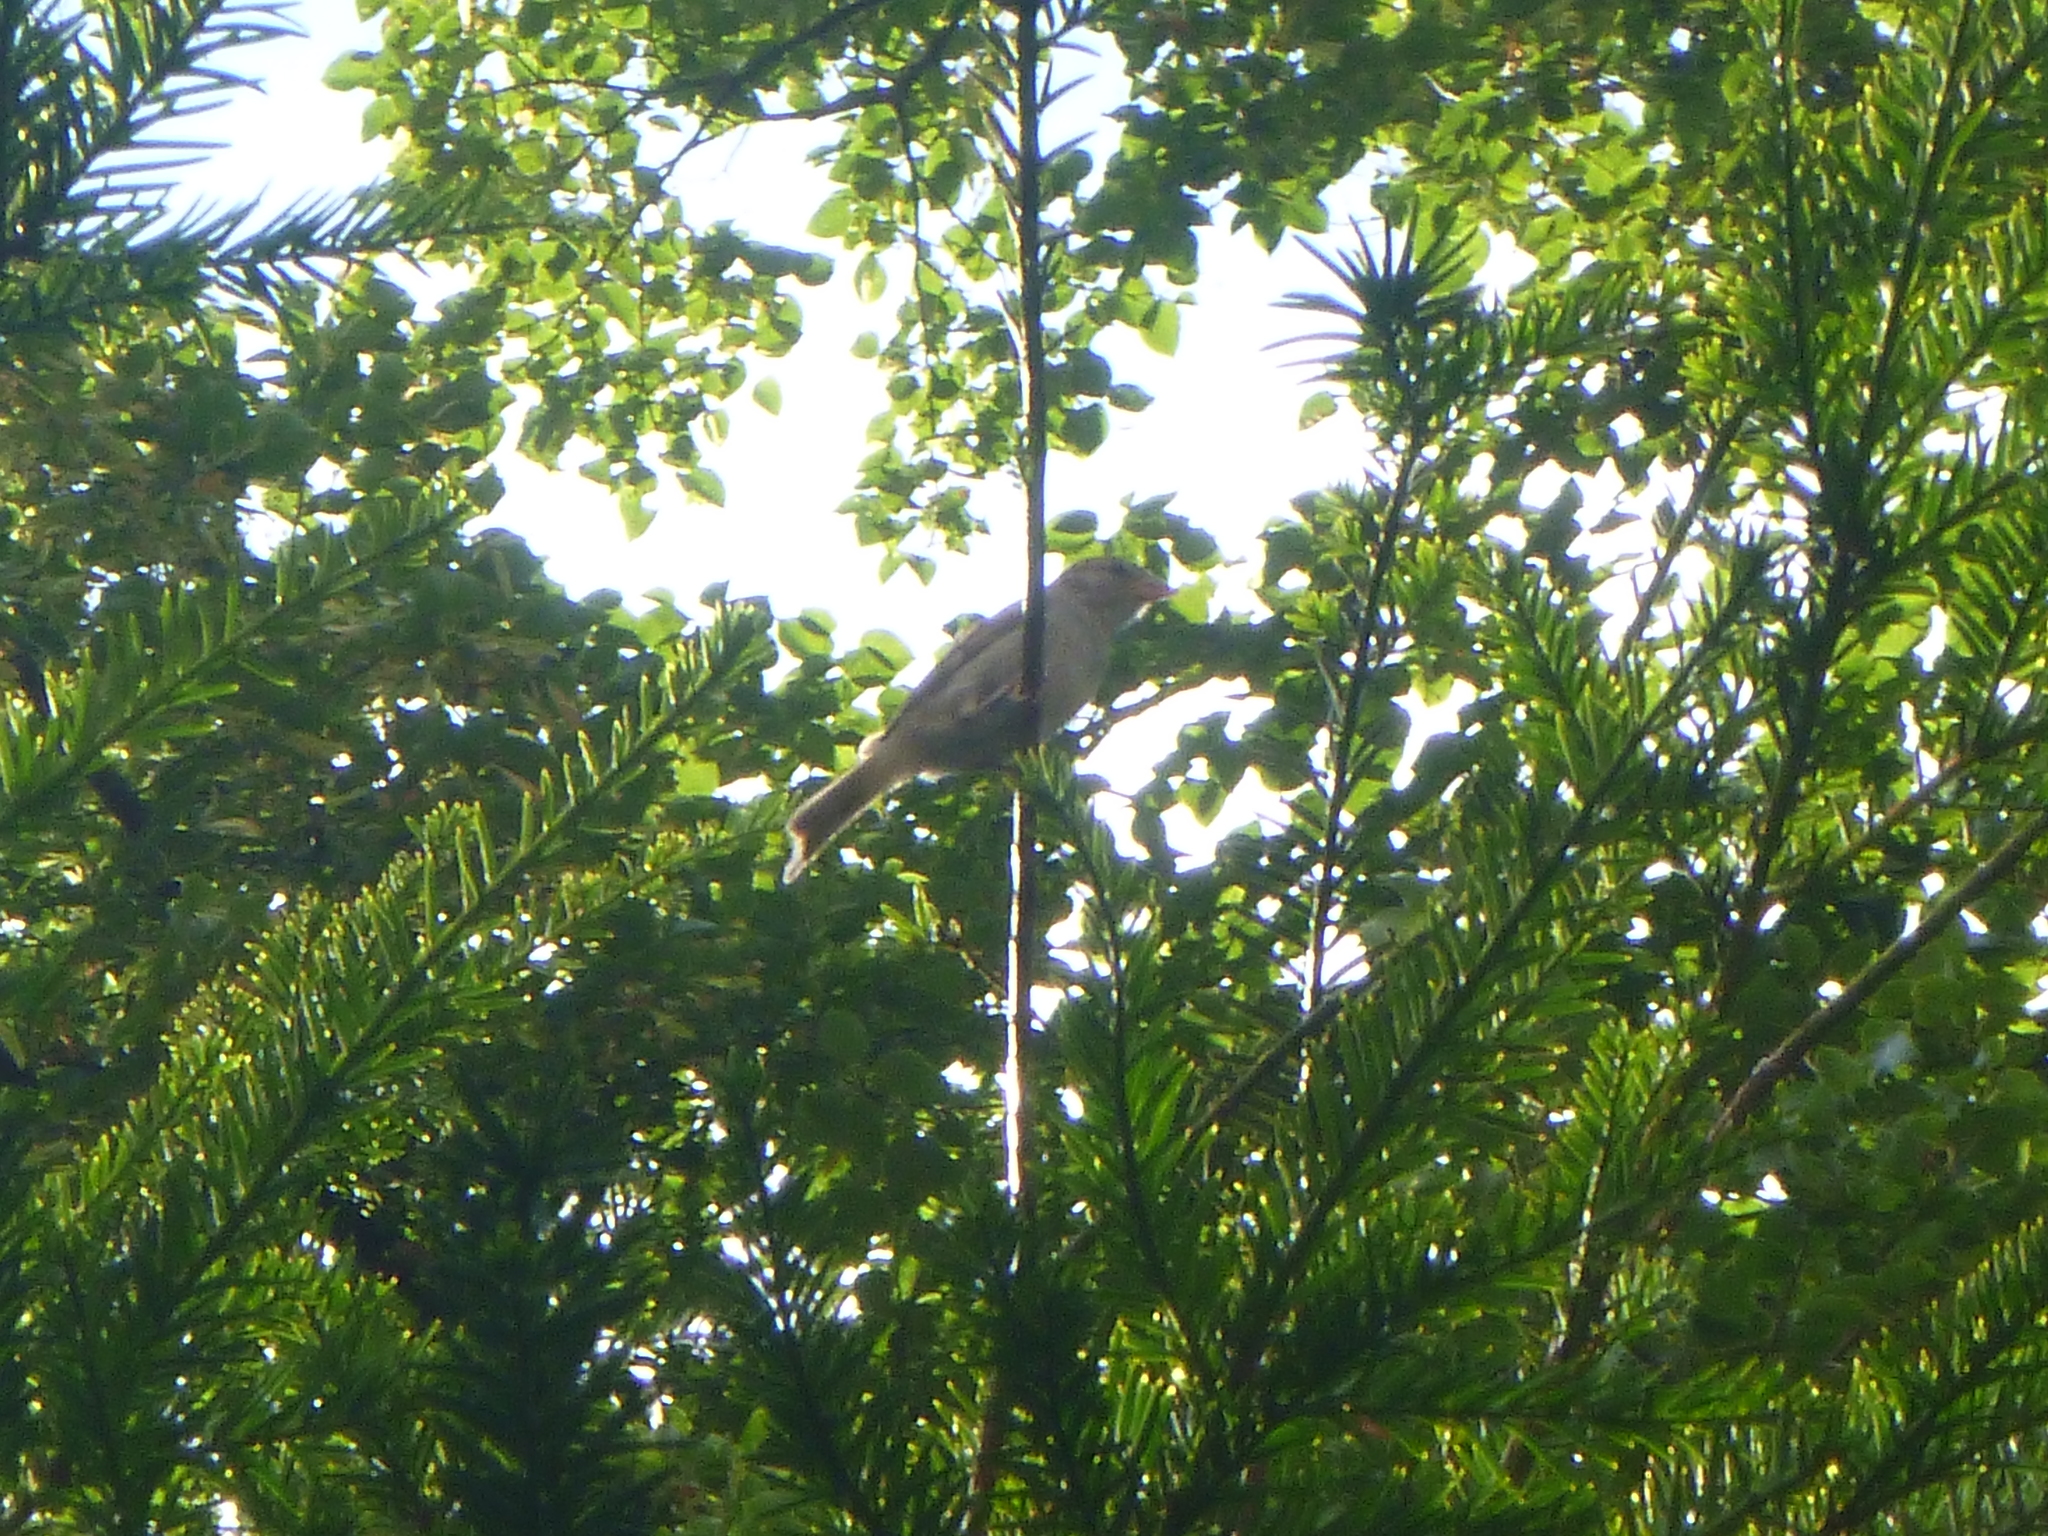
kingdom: Animalia
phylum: Chordata
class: Aves
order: Passeriformes
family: Passeridae
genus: Passer
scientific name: Passer domesticus
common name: House sparrow
